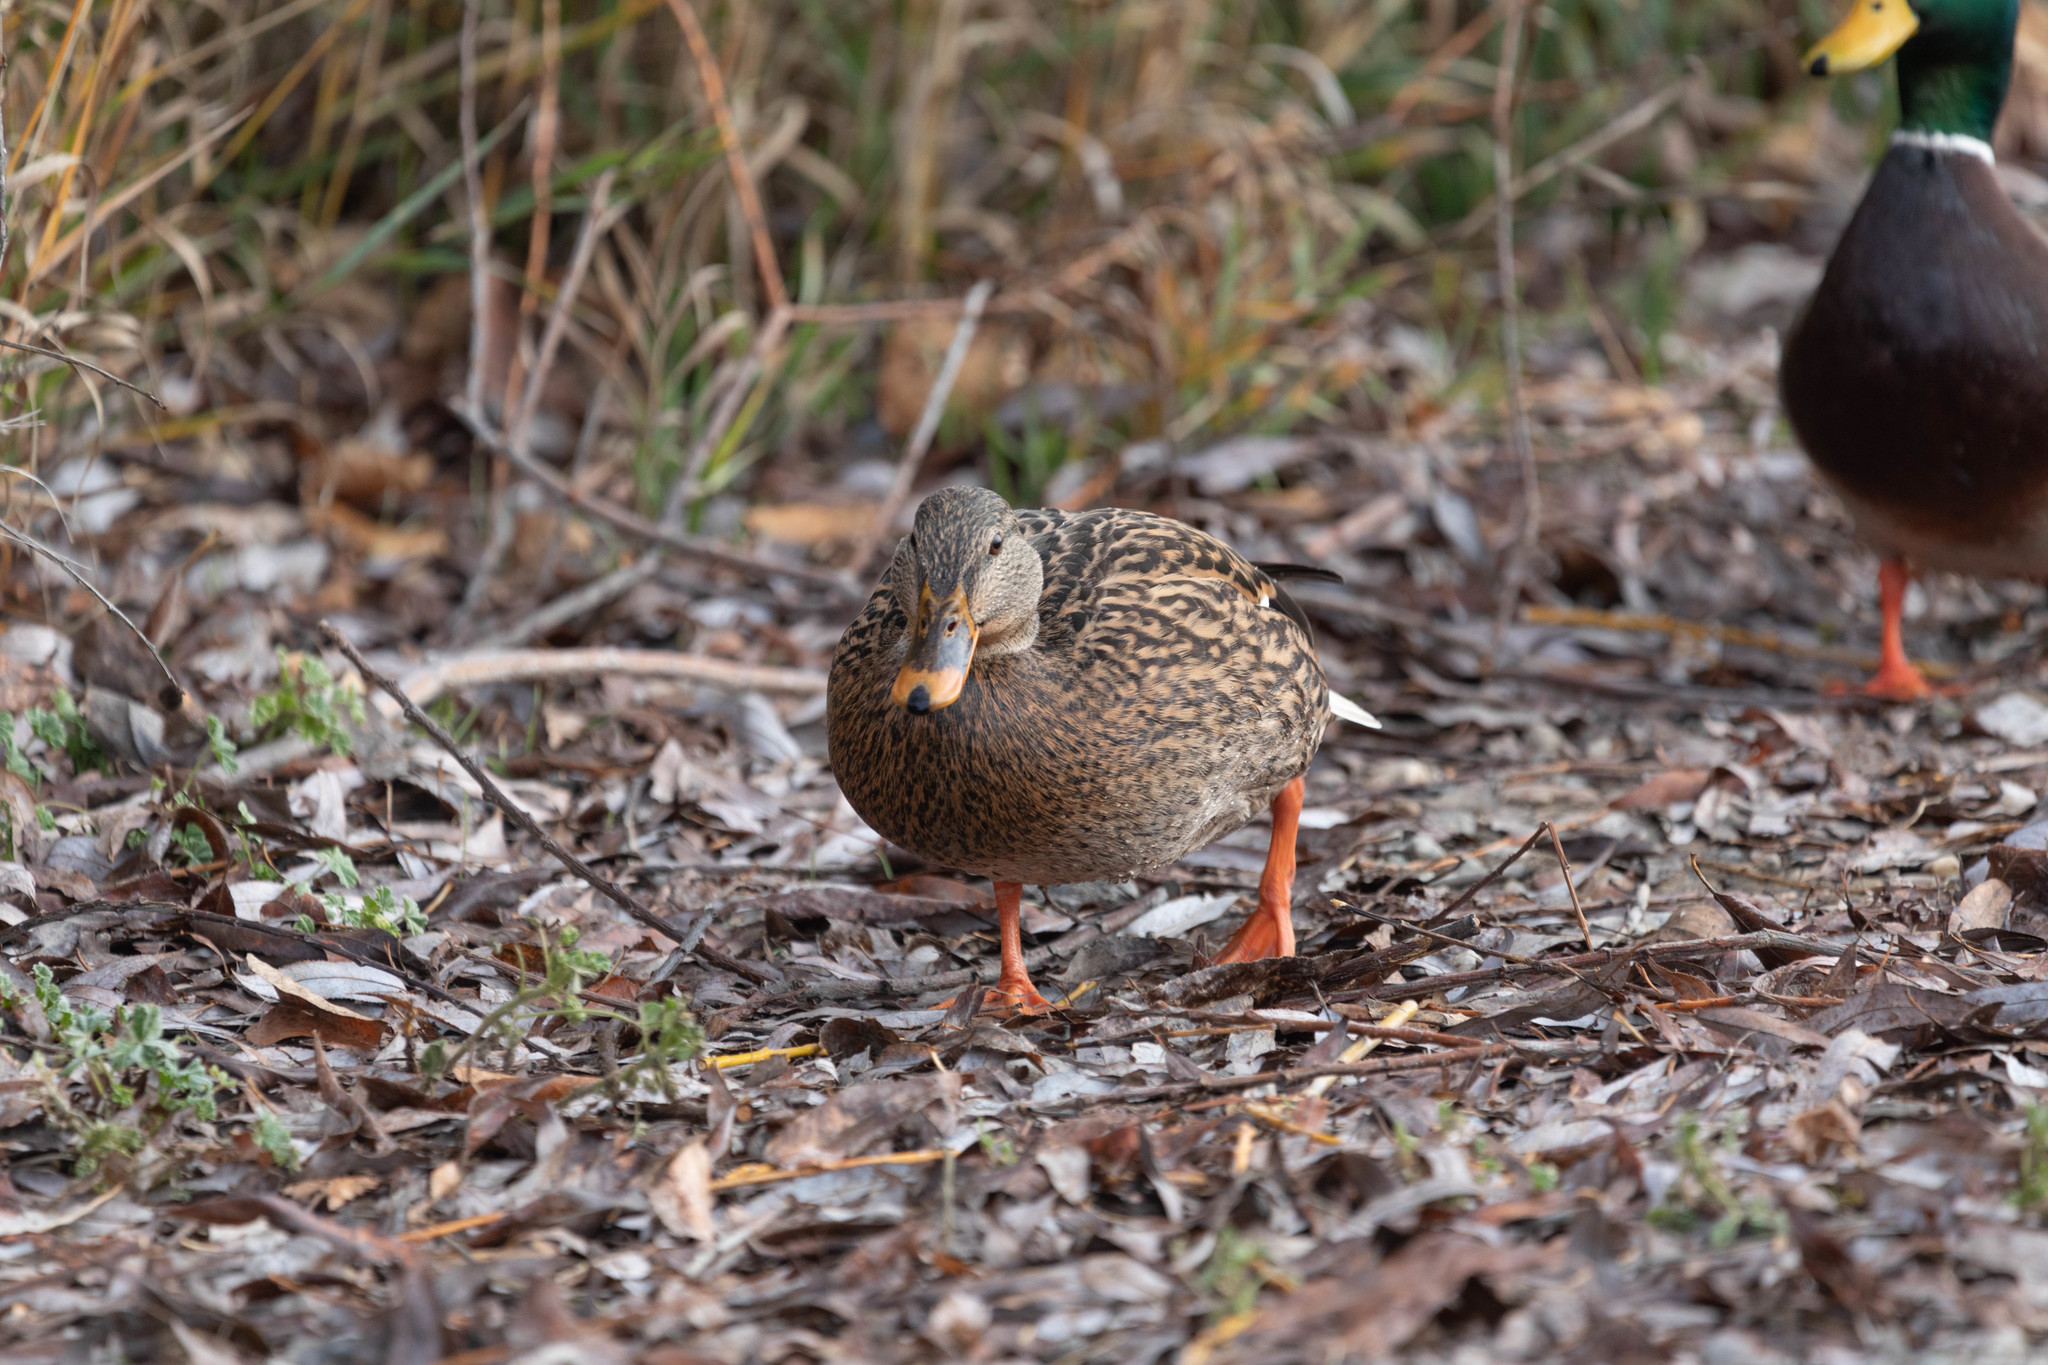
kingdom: Animalia
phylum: Chordata
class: Aves
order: Anseriformes
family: Anatidae
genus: Anas
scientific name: Anas platyrhynchos
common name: Mallard
